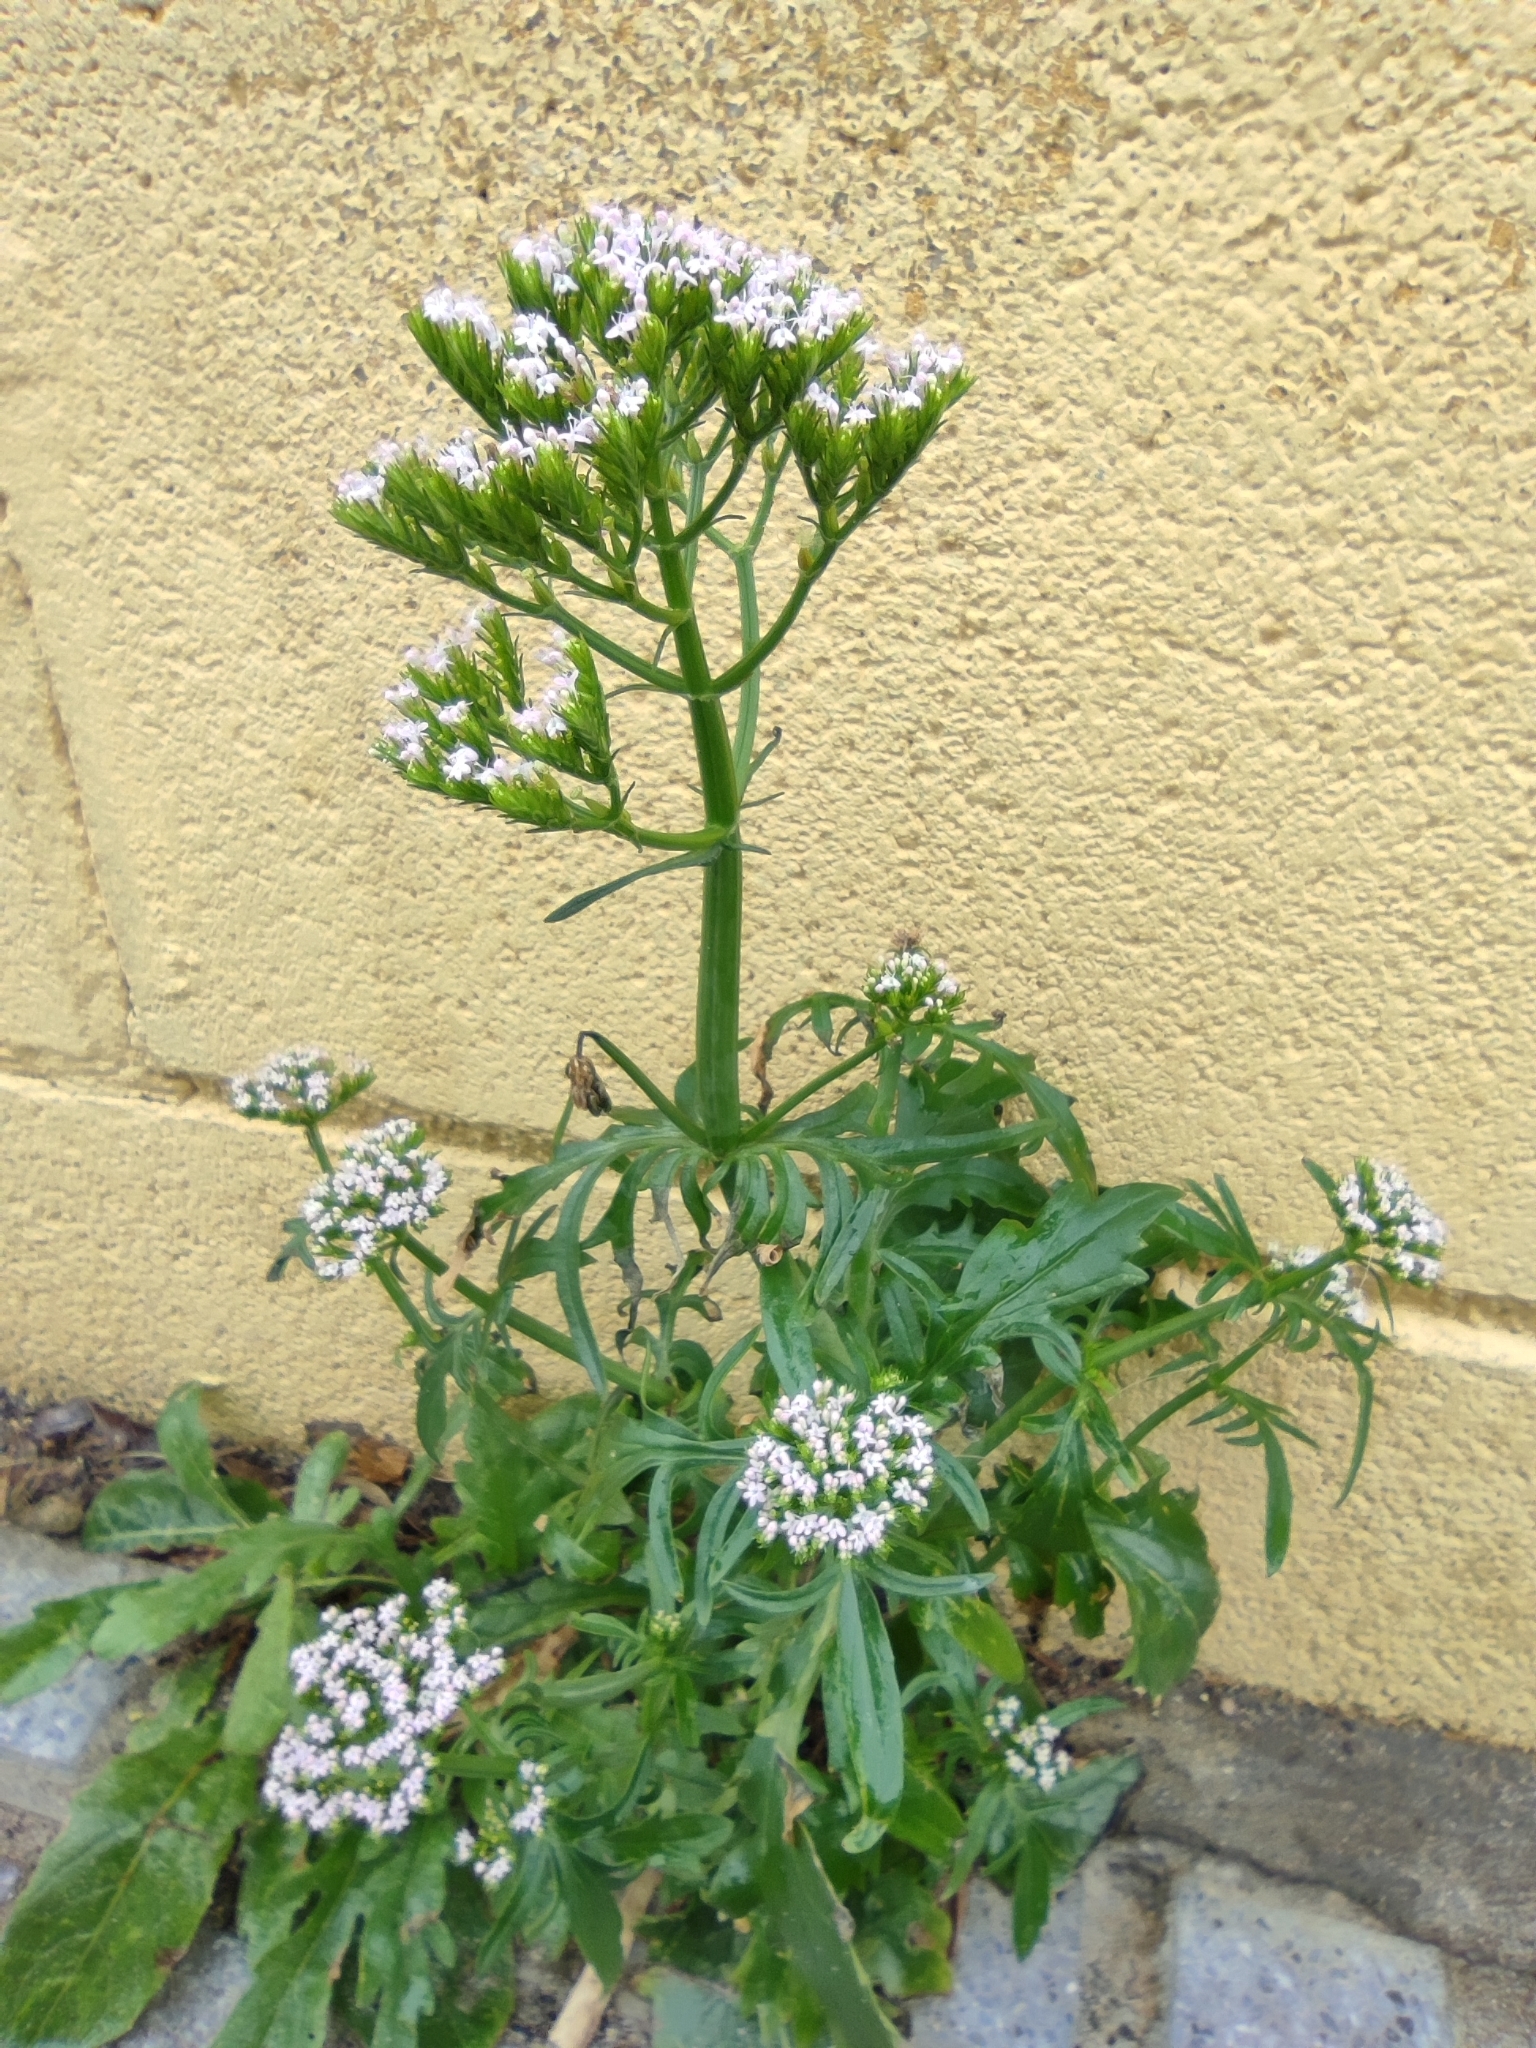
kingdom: Plantae
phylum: Tracheophyta
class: Magnoliopsida
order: Dipsacales
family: Caprifoliaceae
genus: Centranthus
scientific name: Centranthus calcitrapae
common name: Annual valerian
